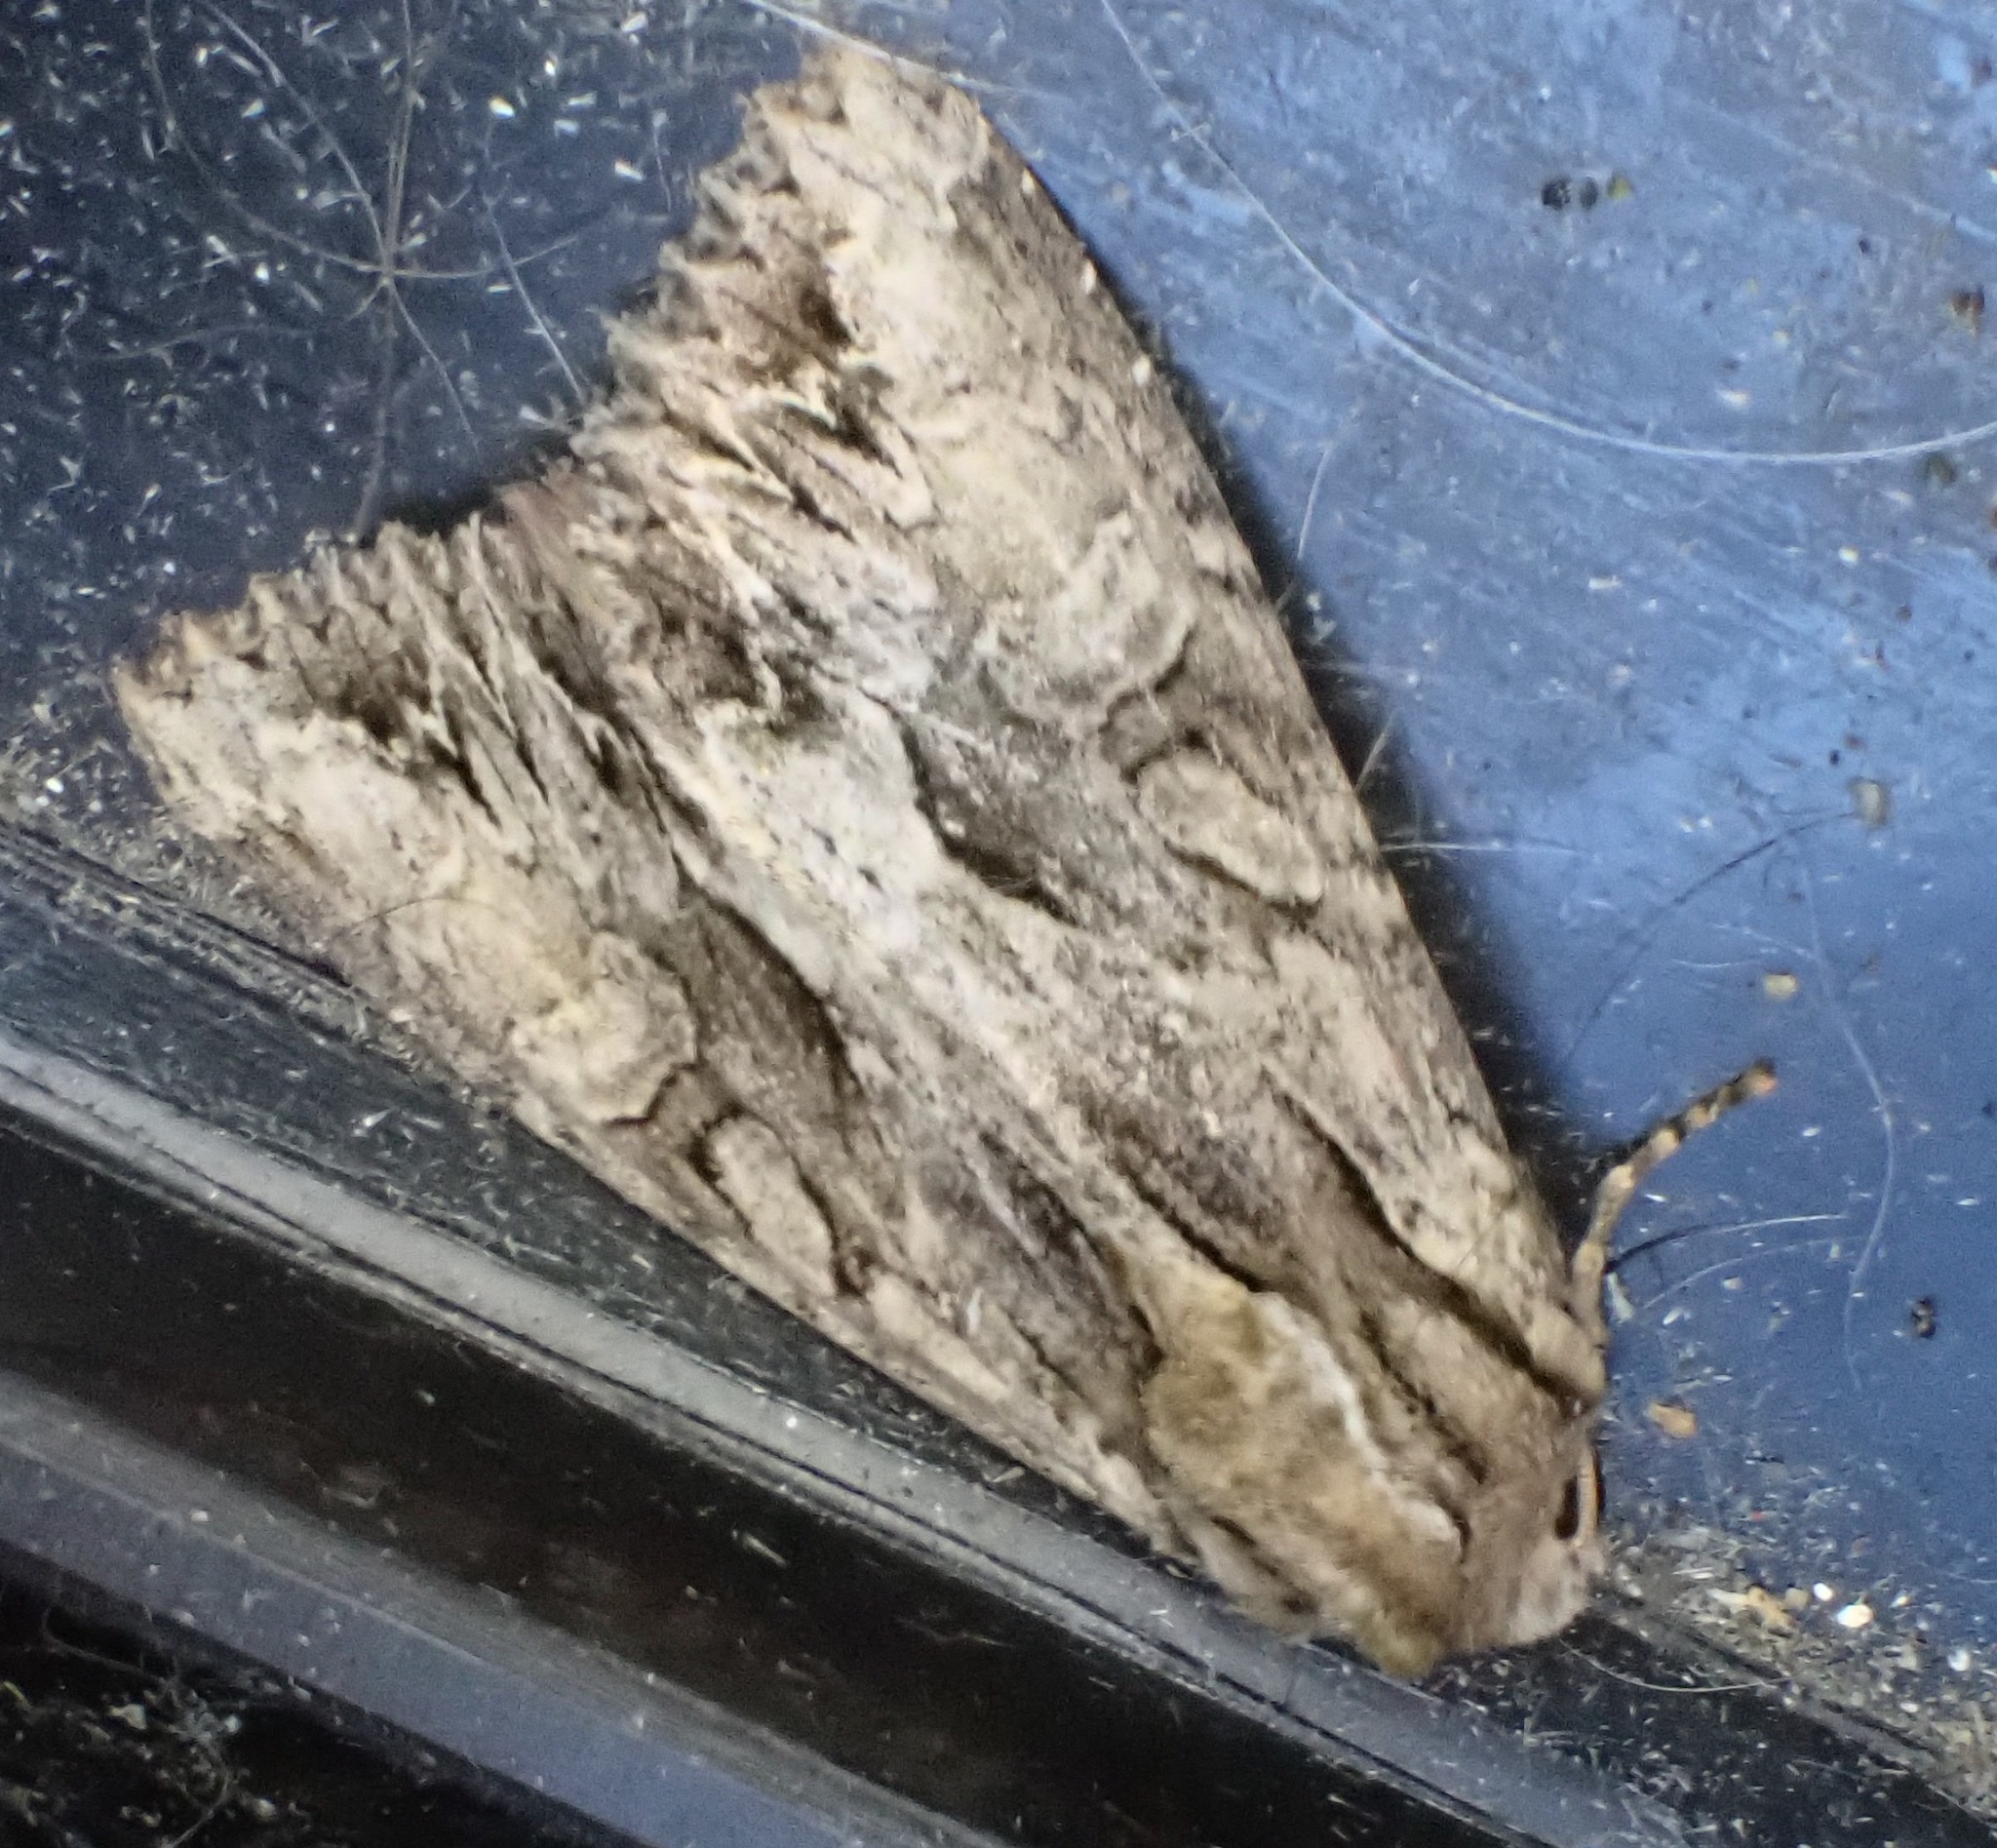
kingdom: Animalia
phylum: Arthropoda
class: Insecta
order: Lepidoptera
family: Noctuidae
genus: Apamea
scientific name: Apamea monoglypha
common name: Dark arches
